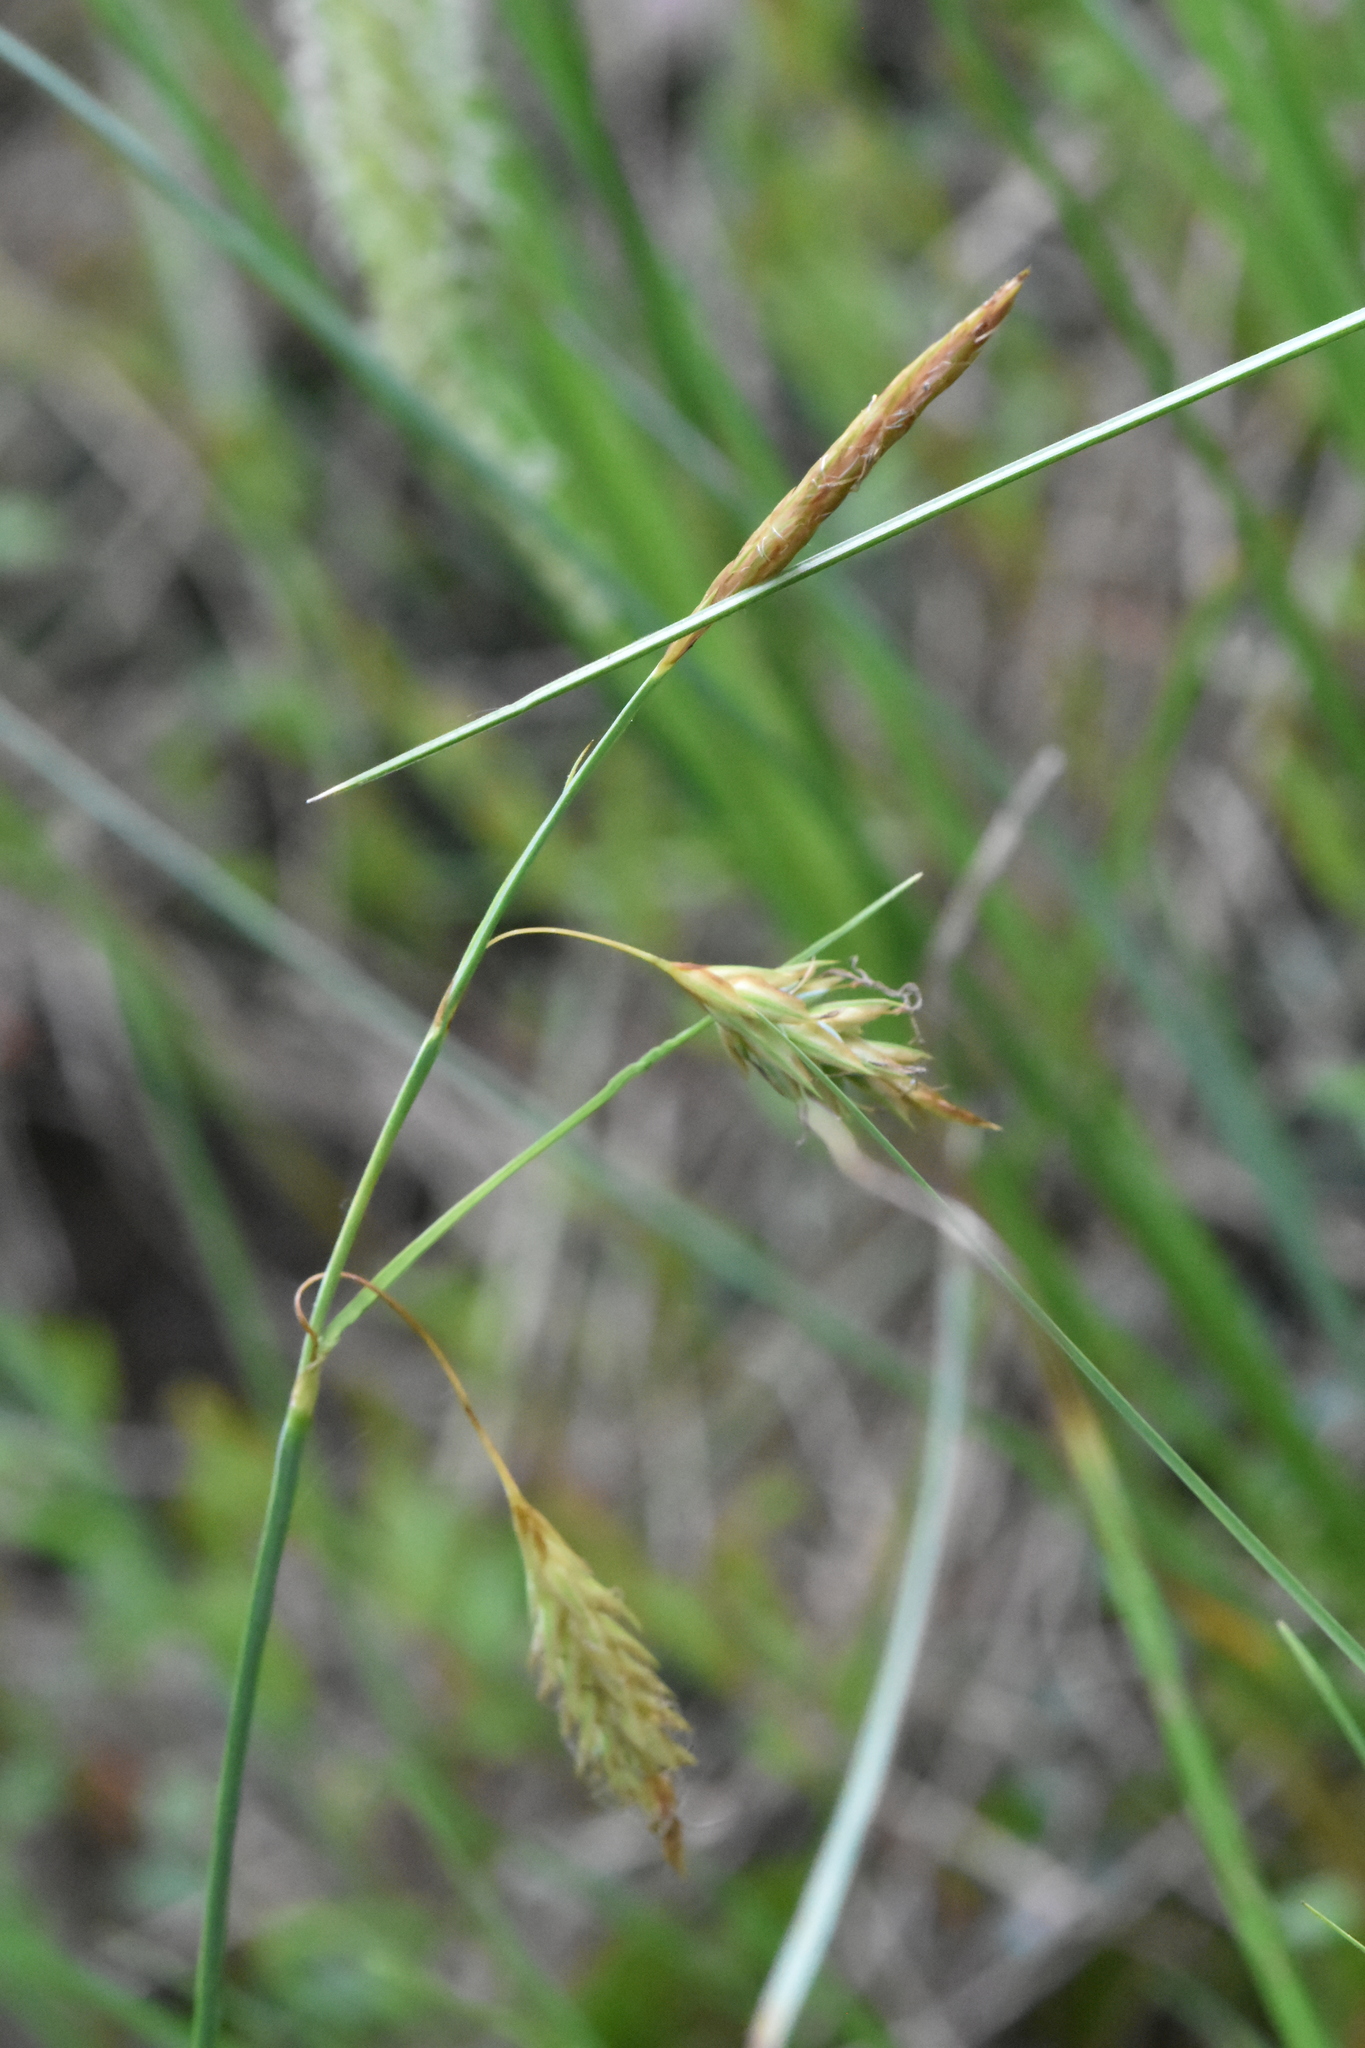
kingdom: Plantae
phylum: Tracheophyta
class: Liliopsida
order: Poales
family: Cyperaceae
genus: Carex
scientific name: Carex limosa
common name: Bog sedge
